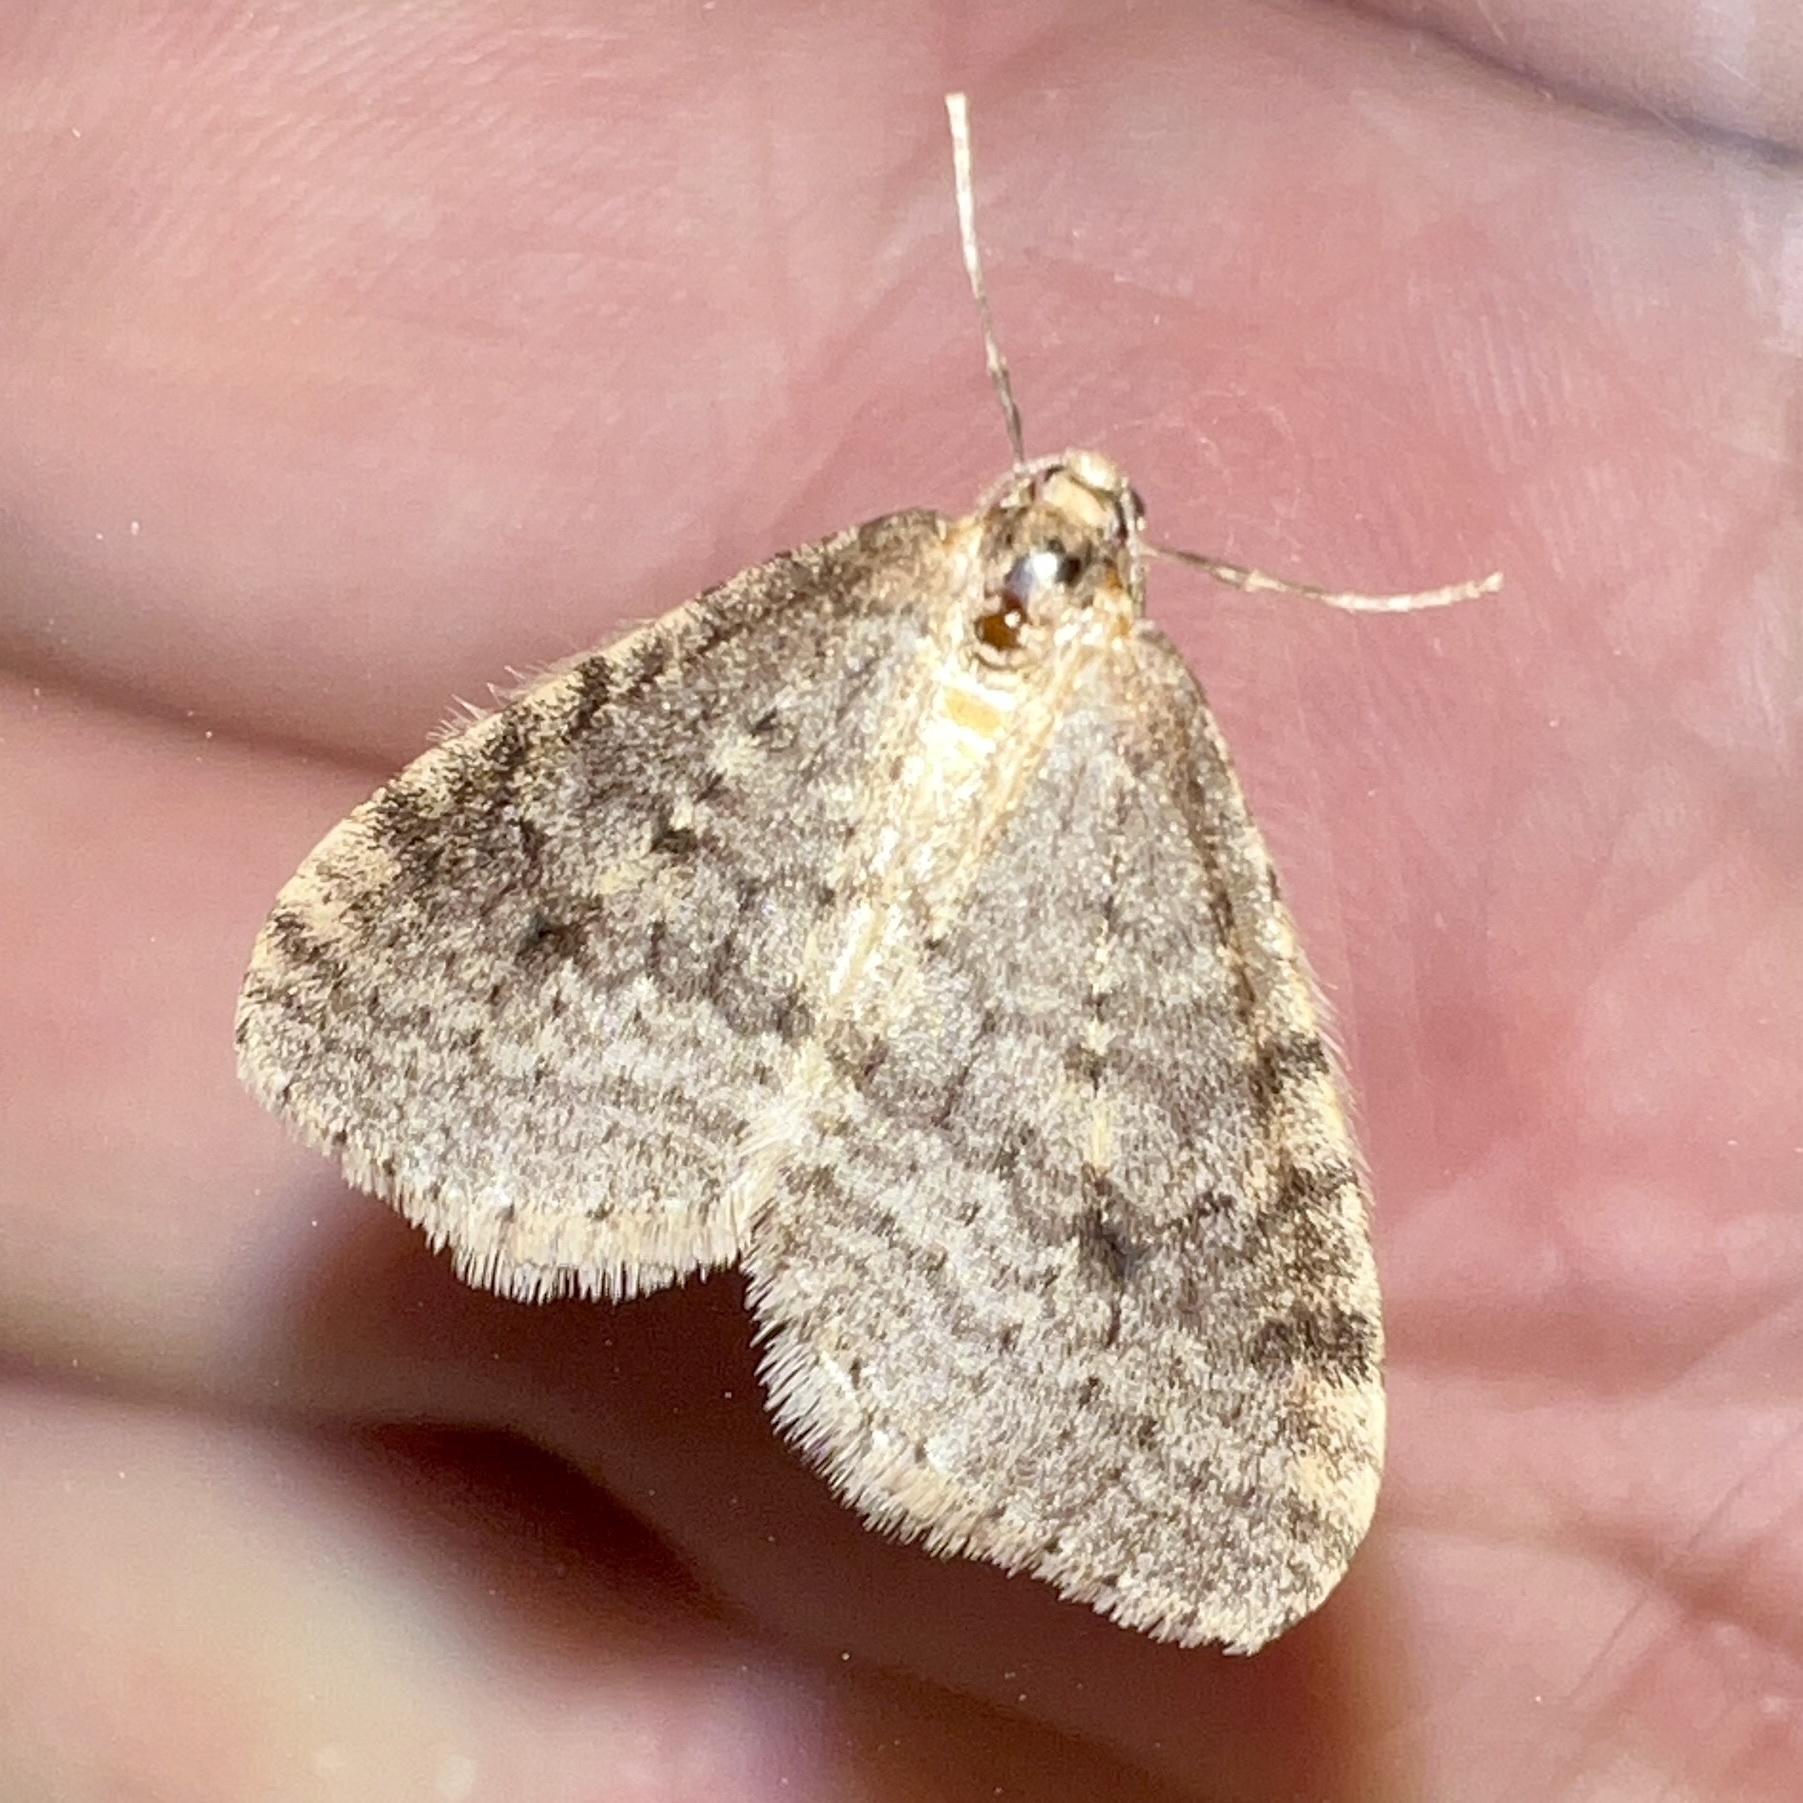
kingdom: Animalia
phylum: Arthropoda
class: Insecta
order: Lepidoptera
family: Geometridae
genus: Operophtera
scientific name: Operophtera bruceata
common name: Bruce spanworm
